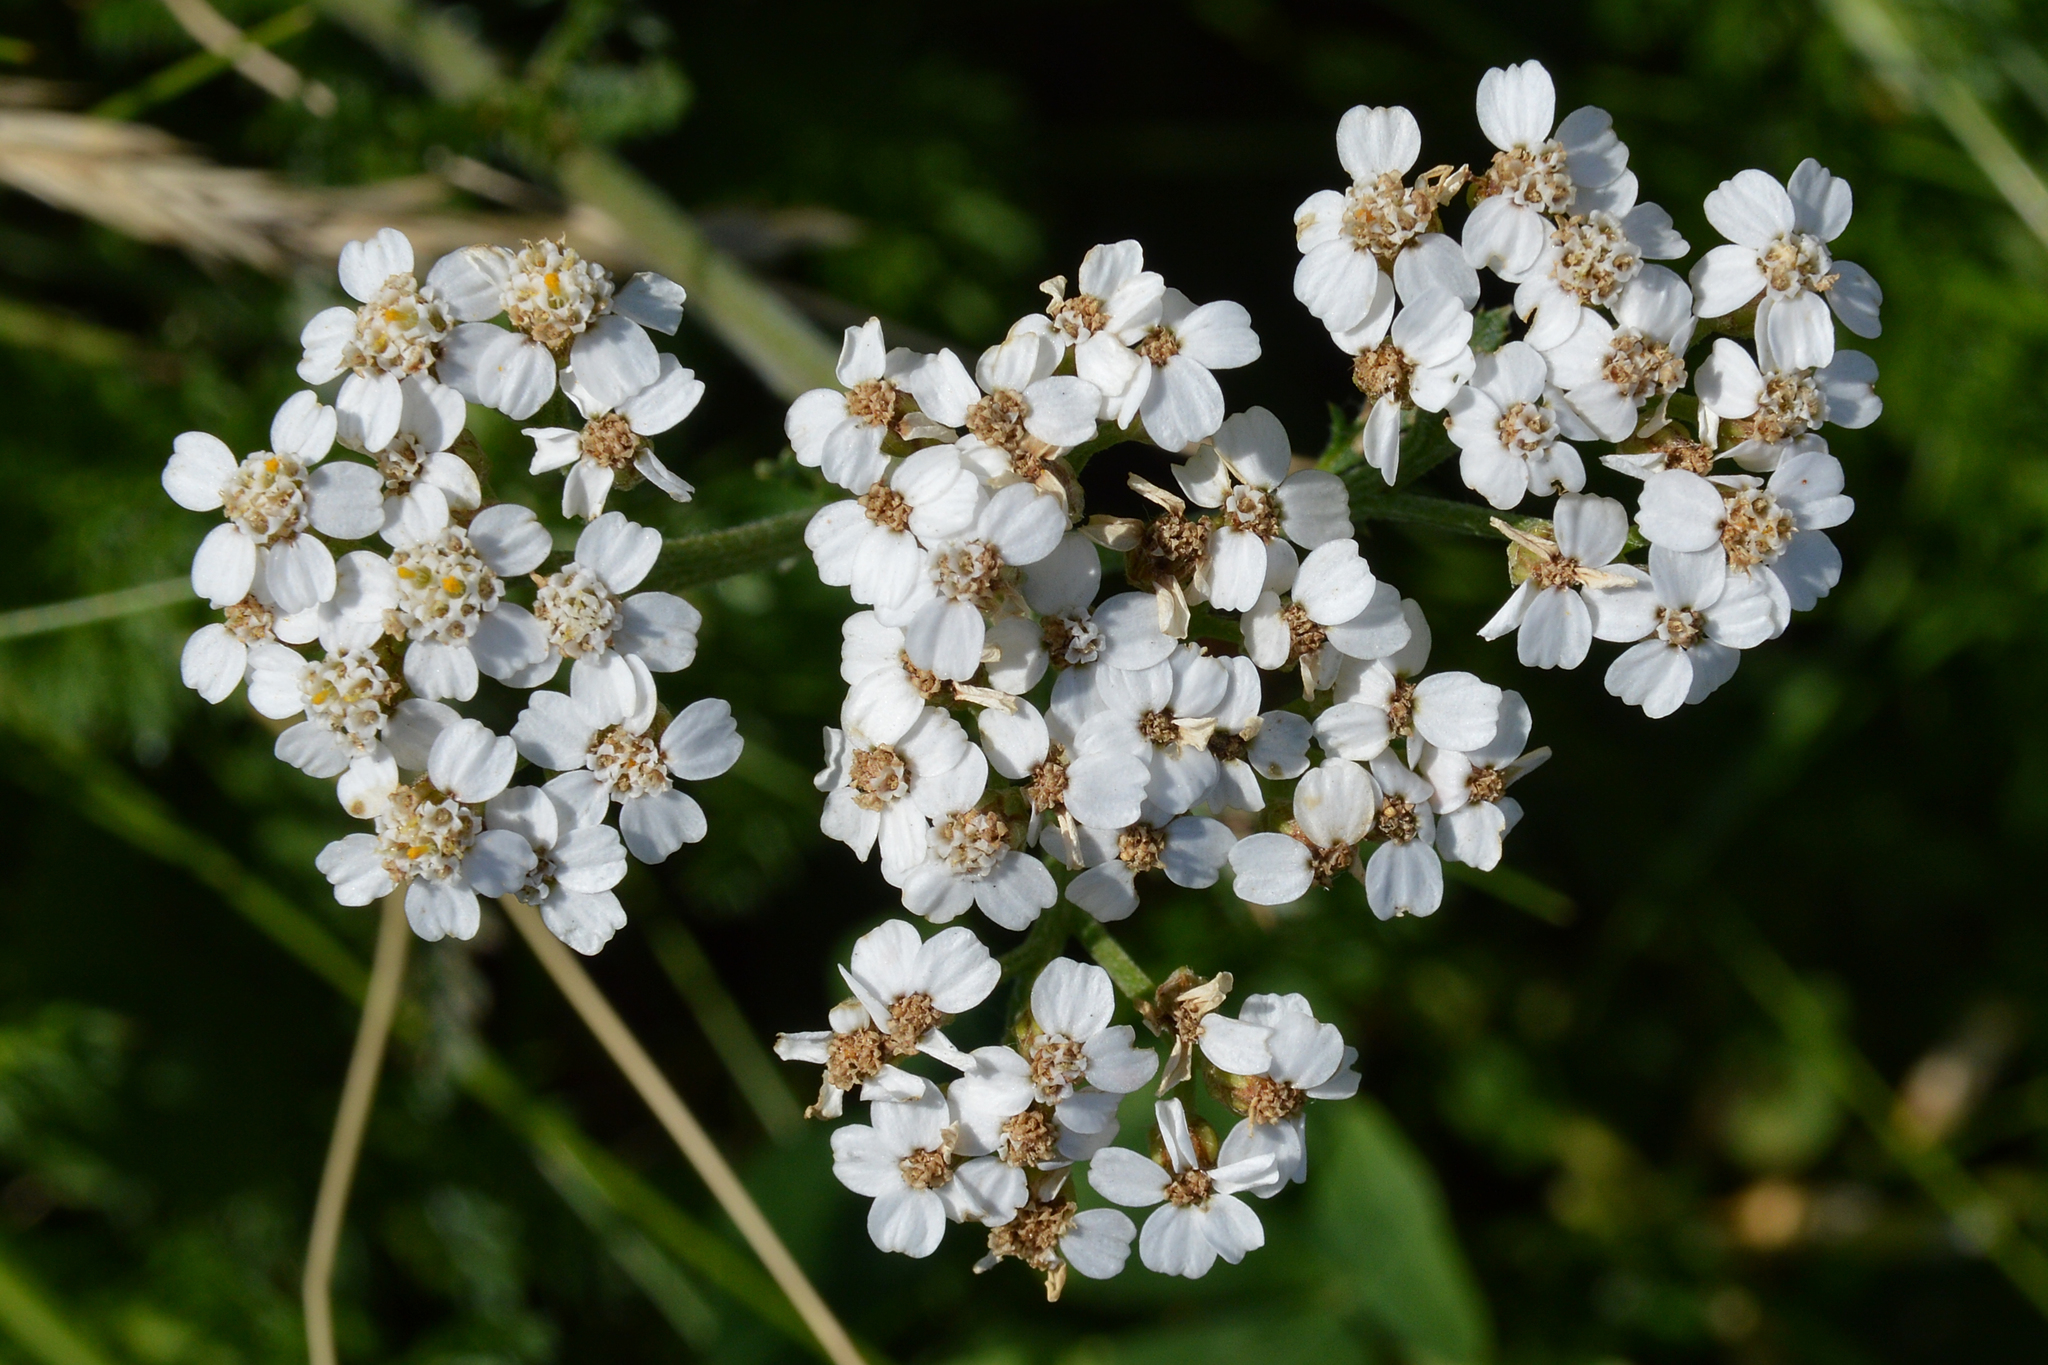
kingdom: Plantae
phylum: Tracheophyta
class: Magnoliopsida
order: Asterales
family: Asteraceae
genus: Achillea
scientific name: Achillea millefolium
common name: Yarrow
